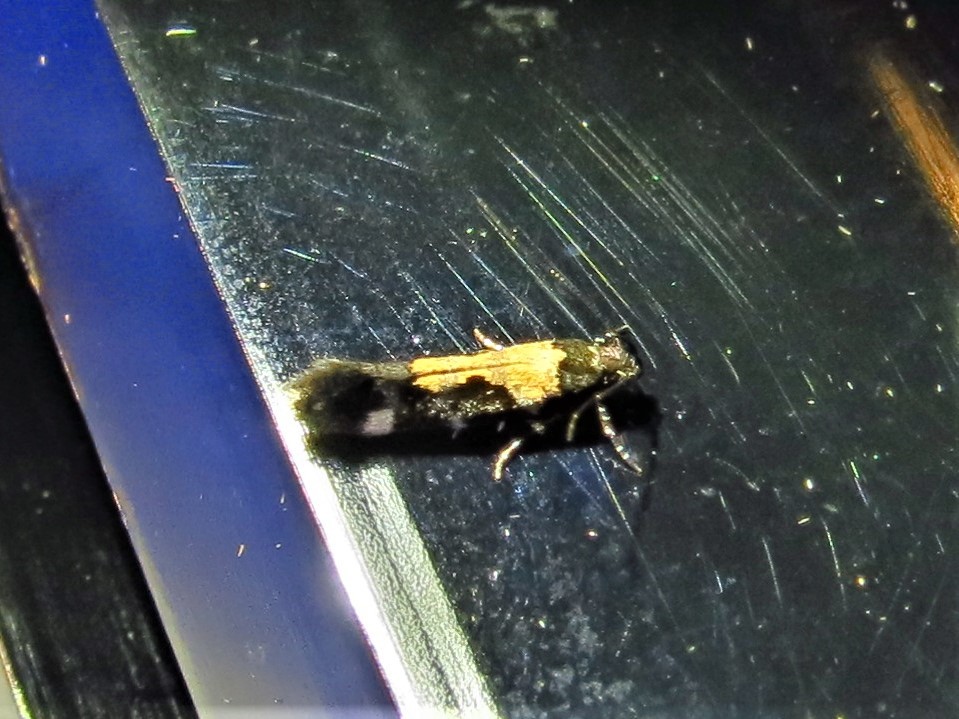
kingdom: Animalia
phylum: Arthropoda
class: Insecta
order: Lepidoptera
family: Gelechiidae
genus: Stegasta
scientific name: Stegasta bosqueella
